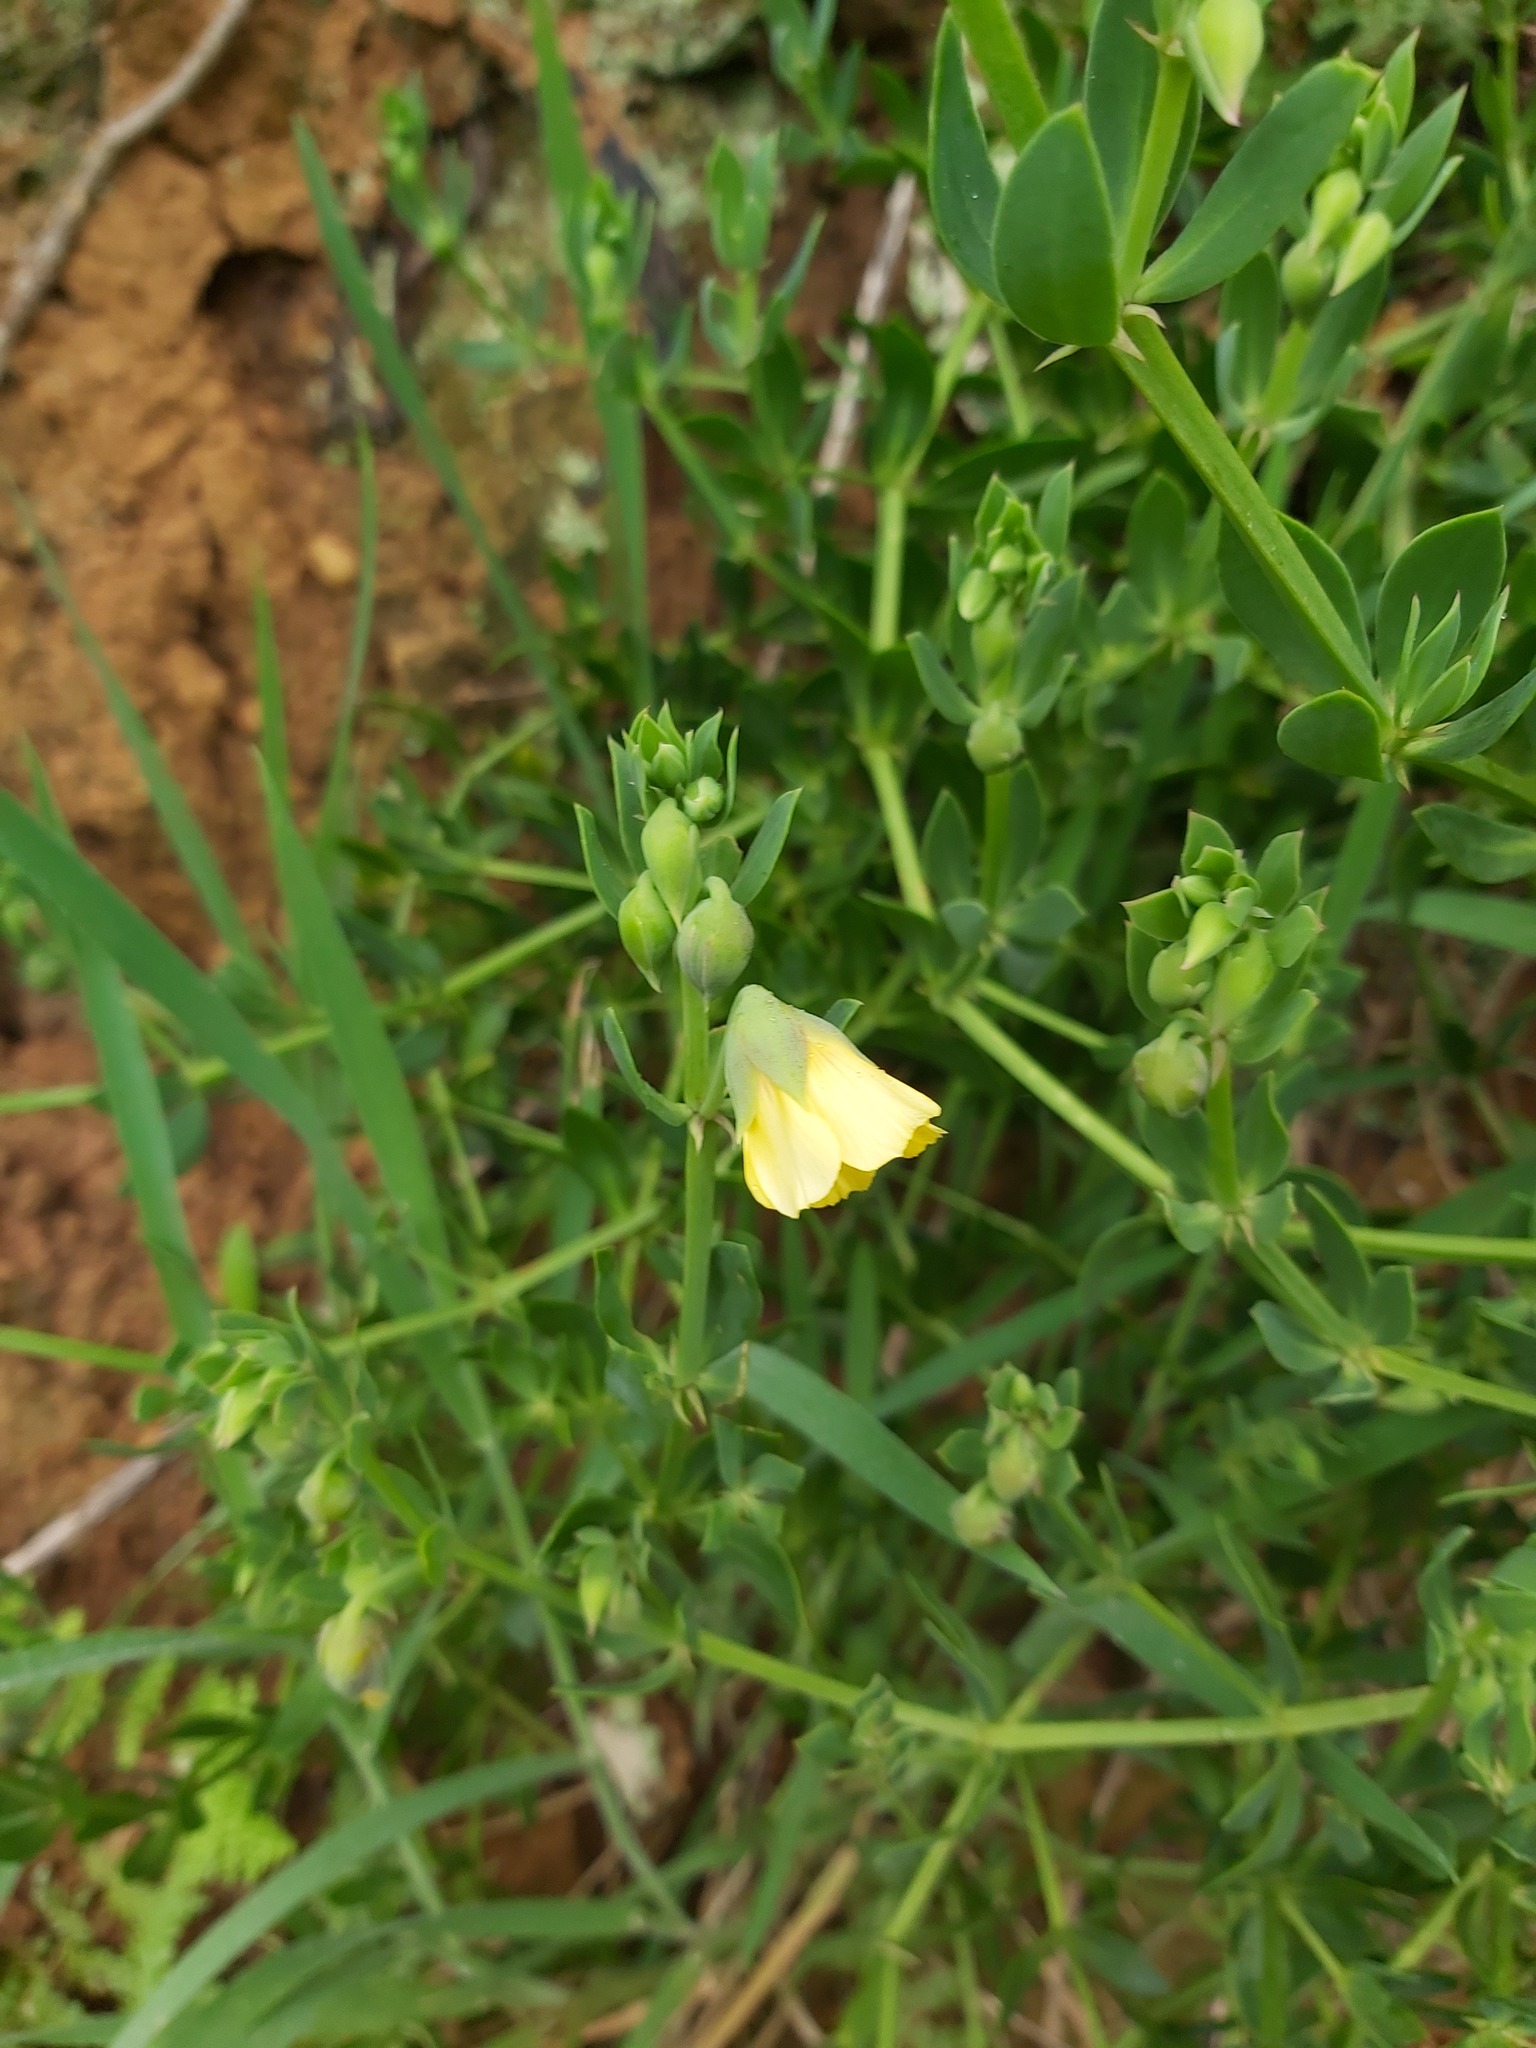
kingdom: Plantae
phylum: Tracheophyta
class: Magnoliopsida
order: Zygophyllales
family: Zygophyllaceae
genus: Roepera
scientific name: Roepera sessilifolia
